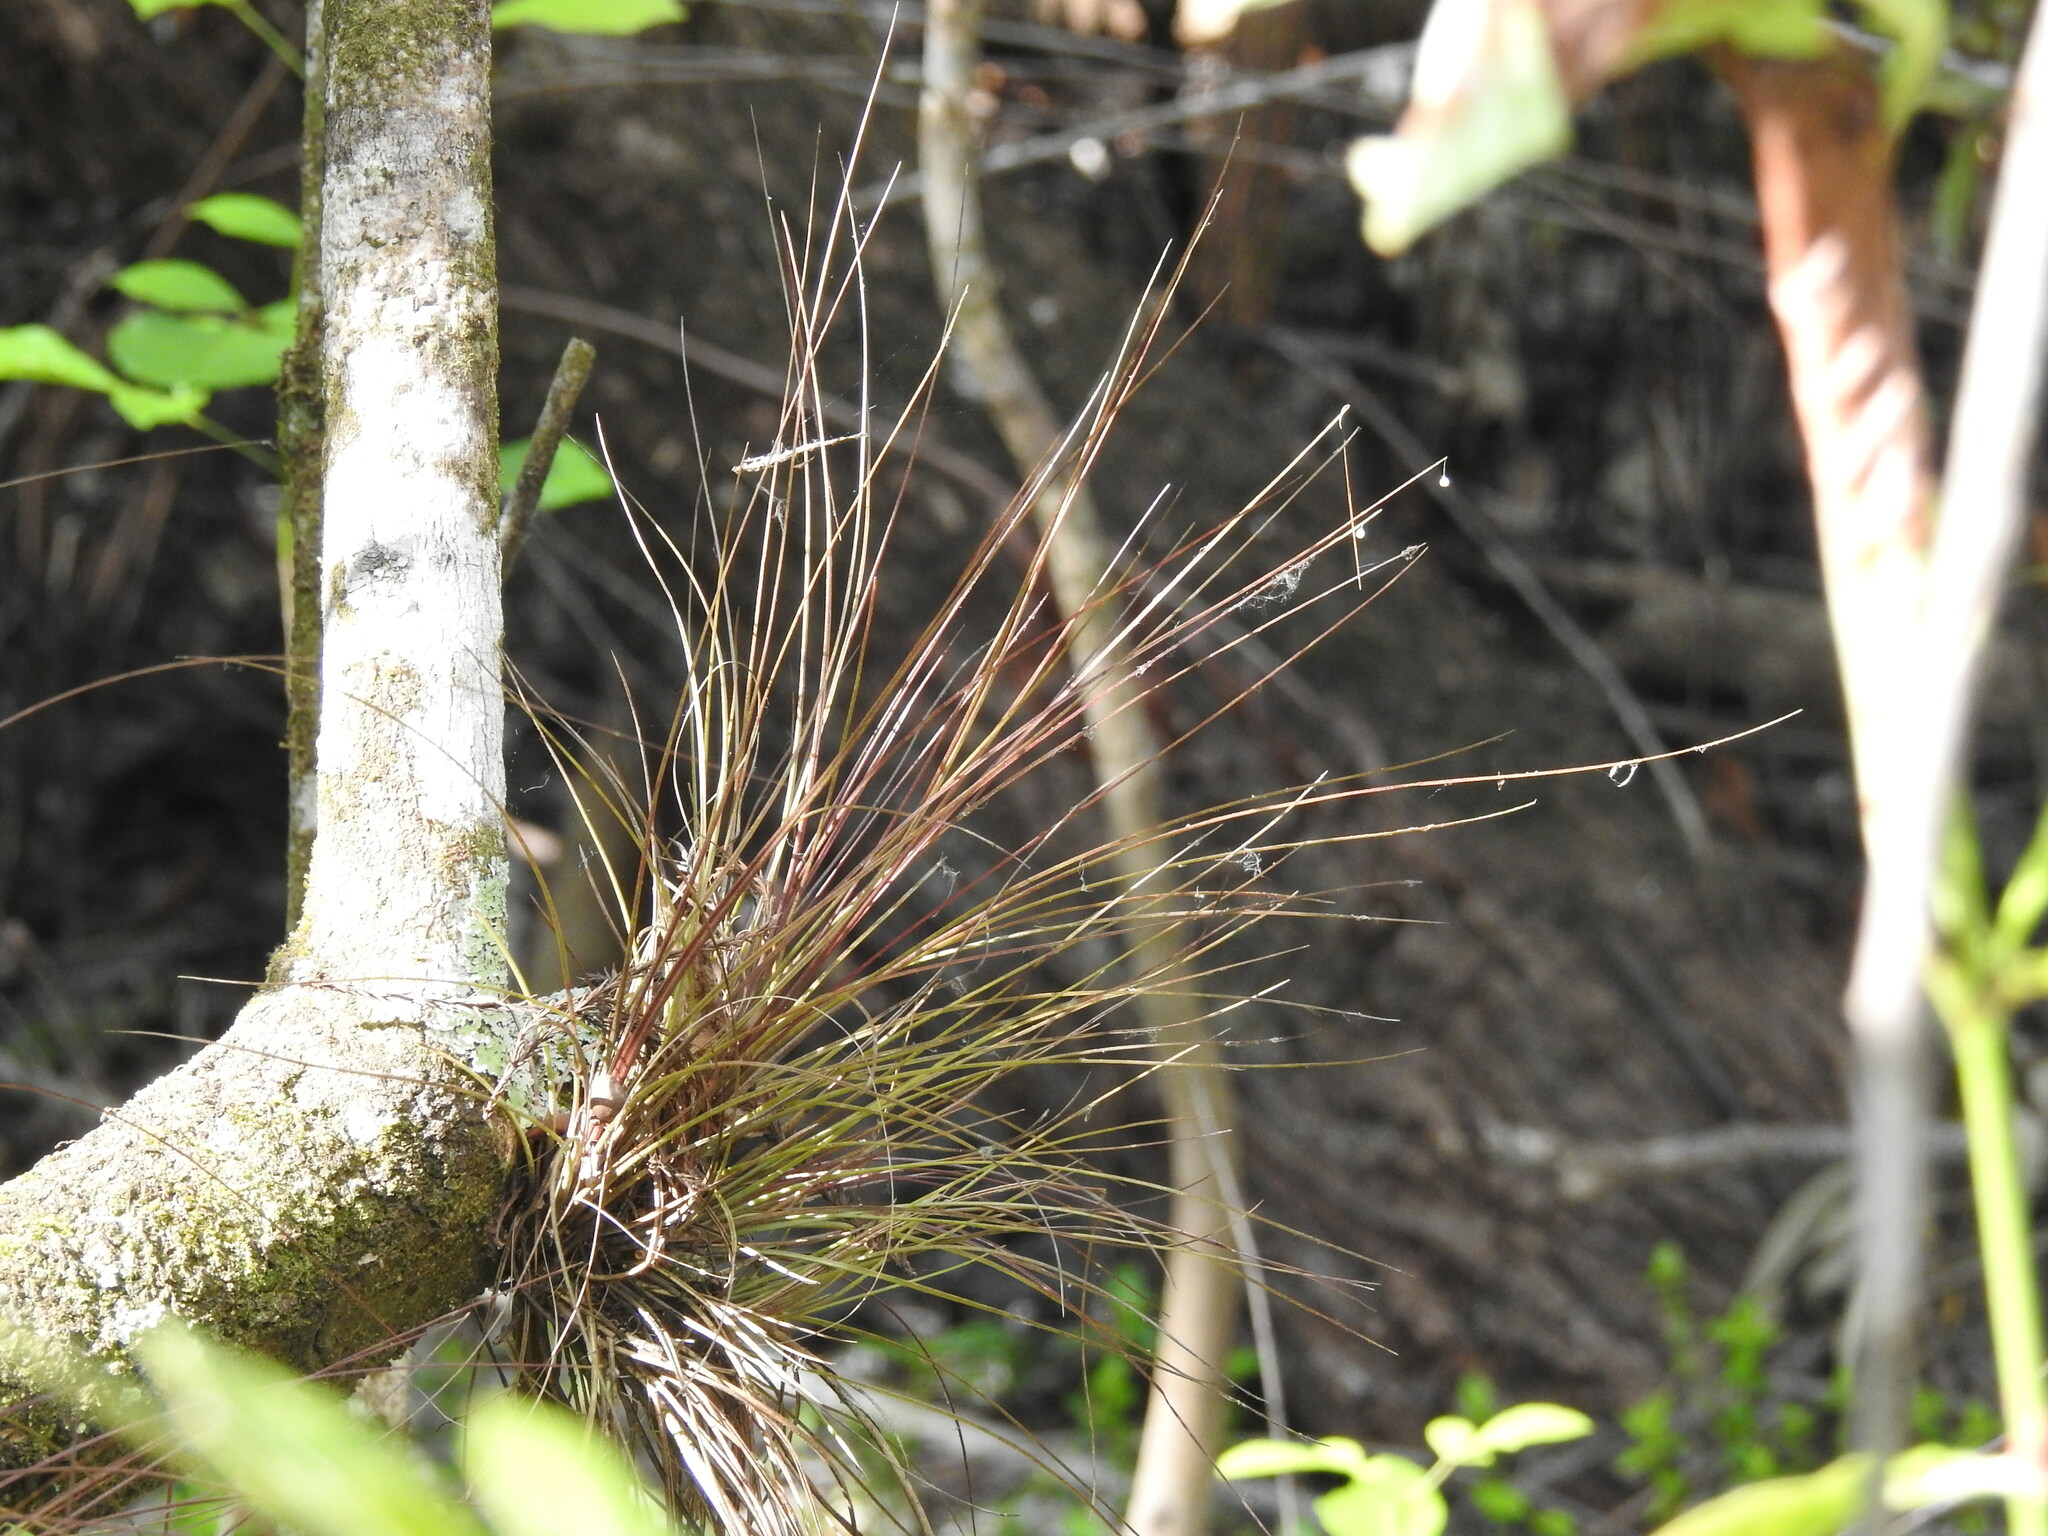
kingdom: Plantae
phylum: Tracheophyta
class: Liliopsida
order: Poales
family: Bromeliaceae
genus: Tillandsia
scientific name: Tillandsia setacea
